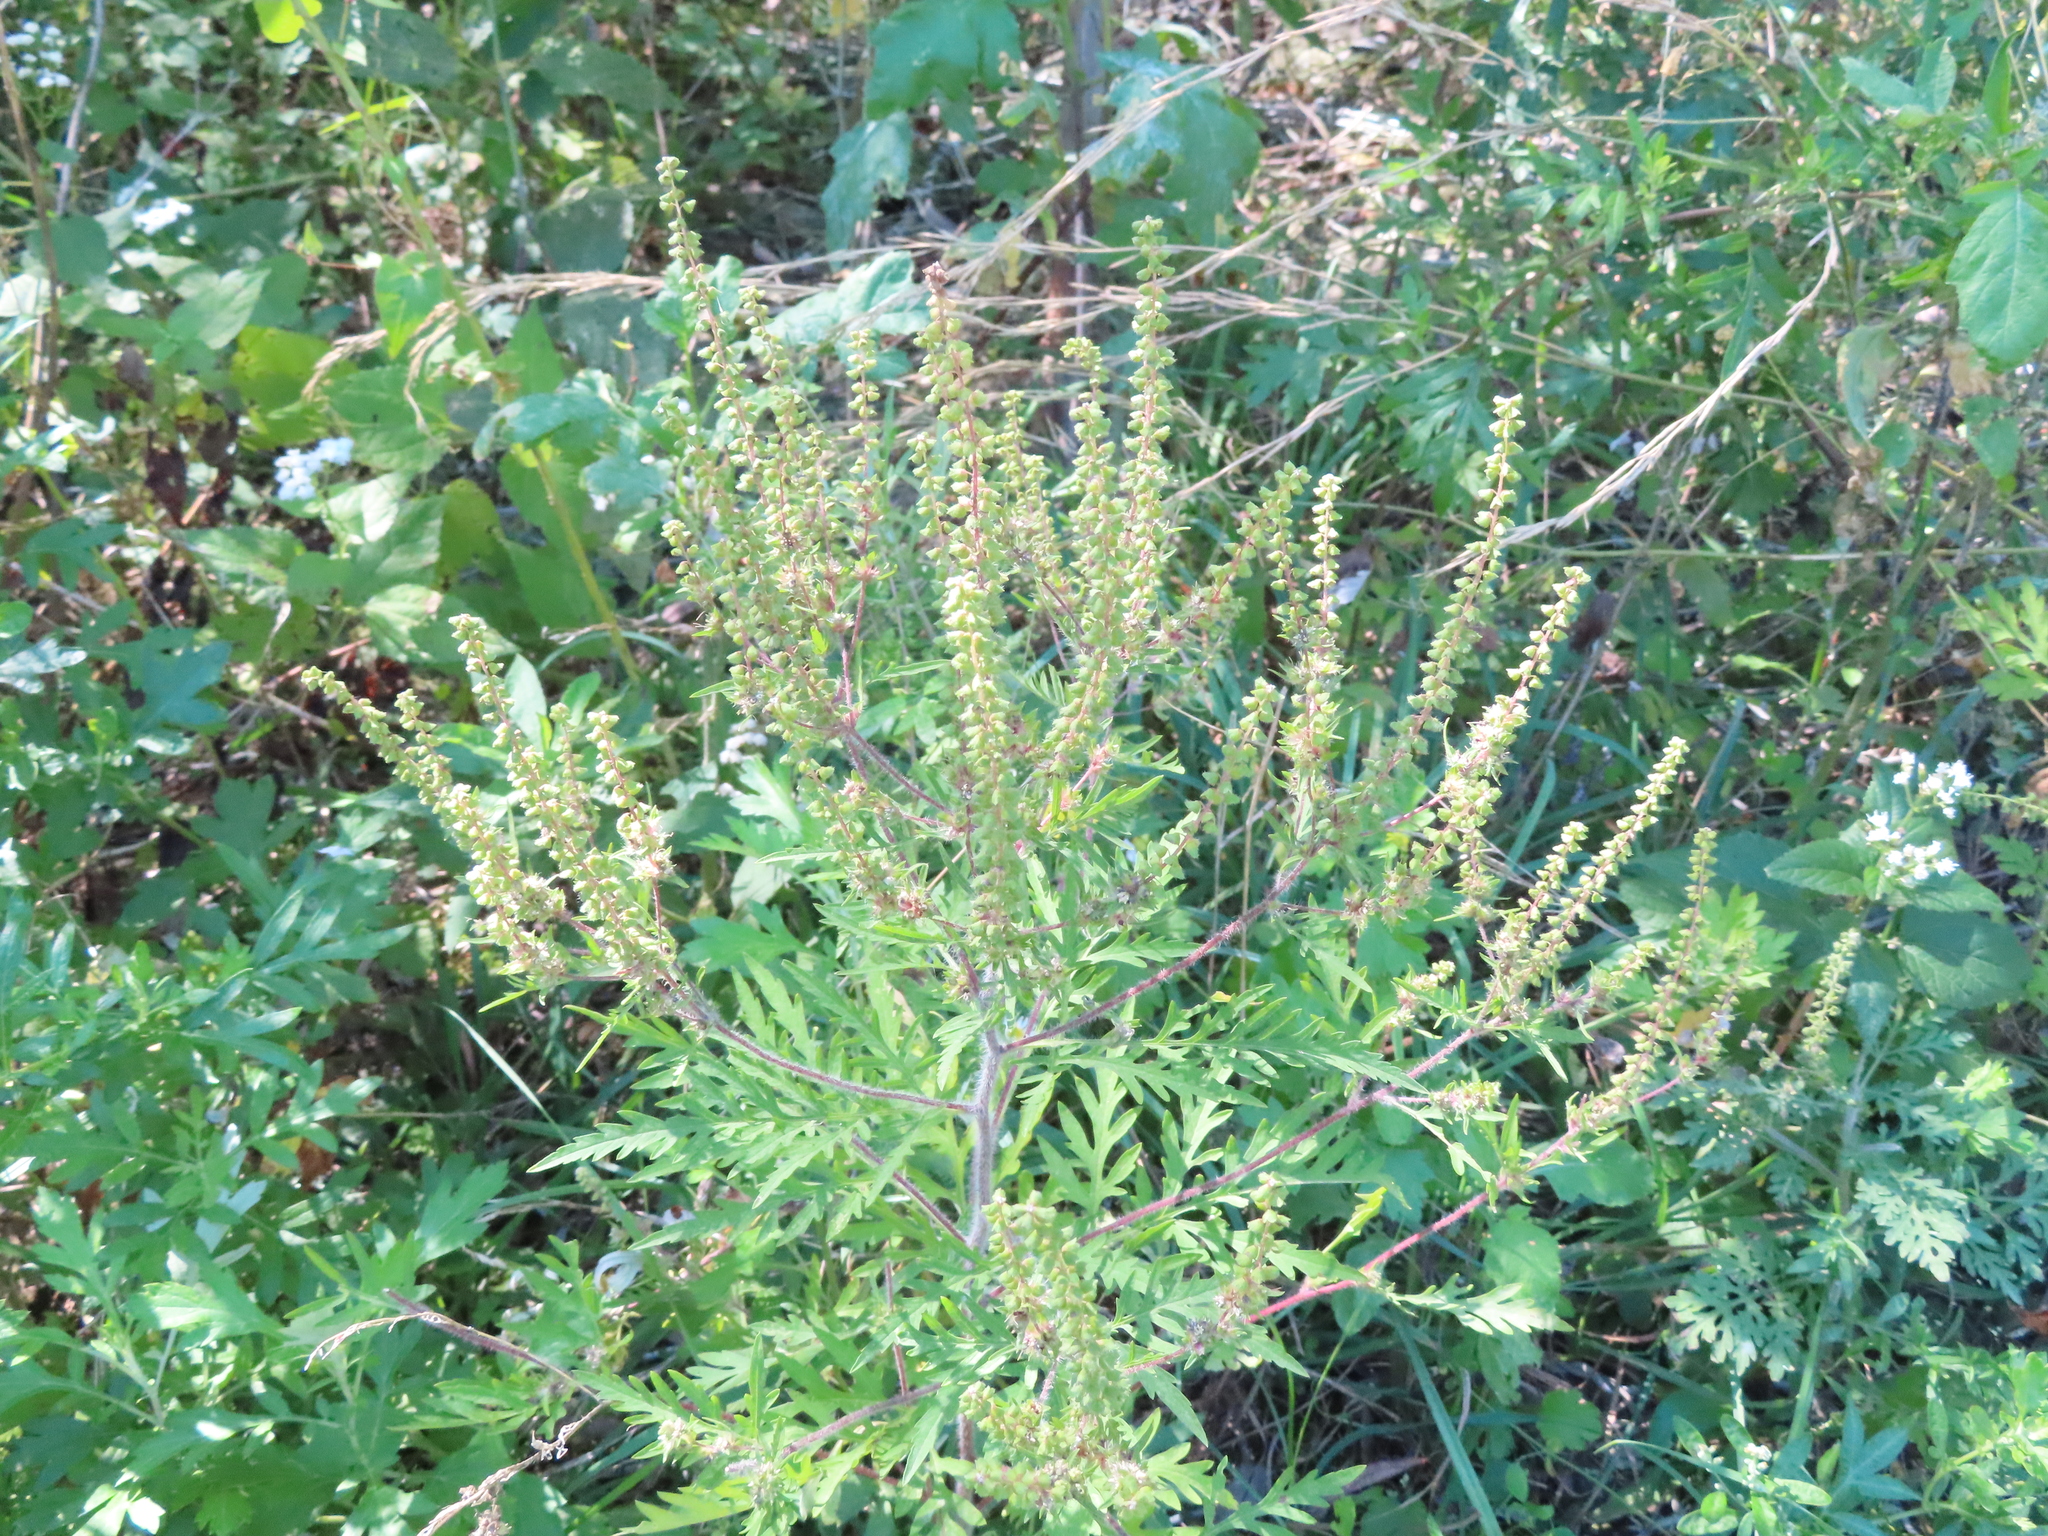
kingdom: Plantae
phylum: Tracheophyta
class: Magnoliopsida
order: Asterales
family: Asteraceae
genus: Ambrosia
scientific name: Ambrosia artemisiifolia
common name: Annual ragweed
